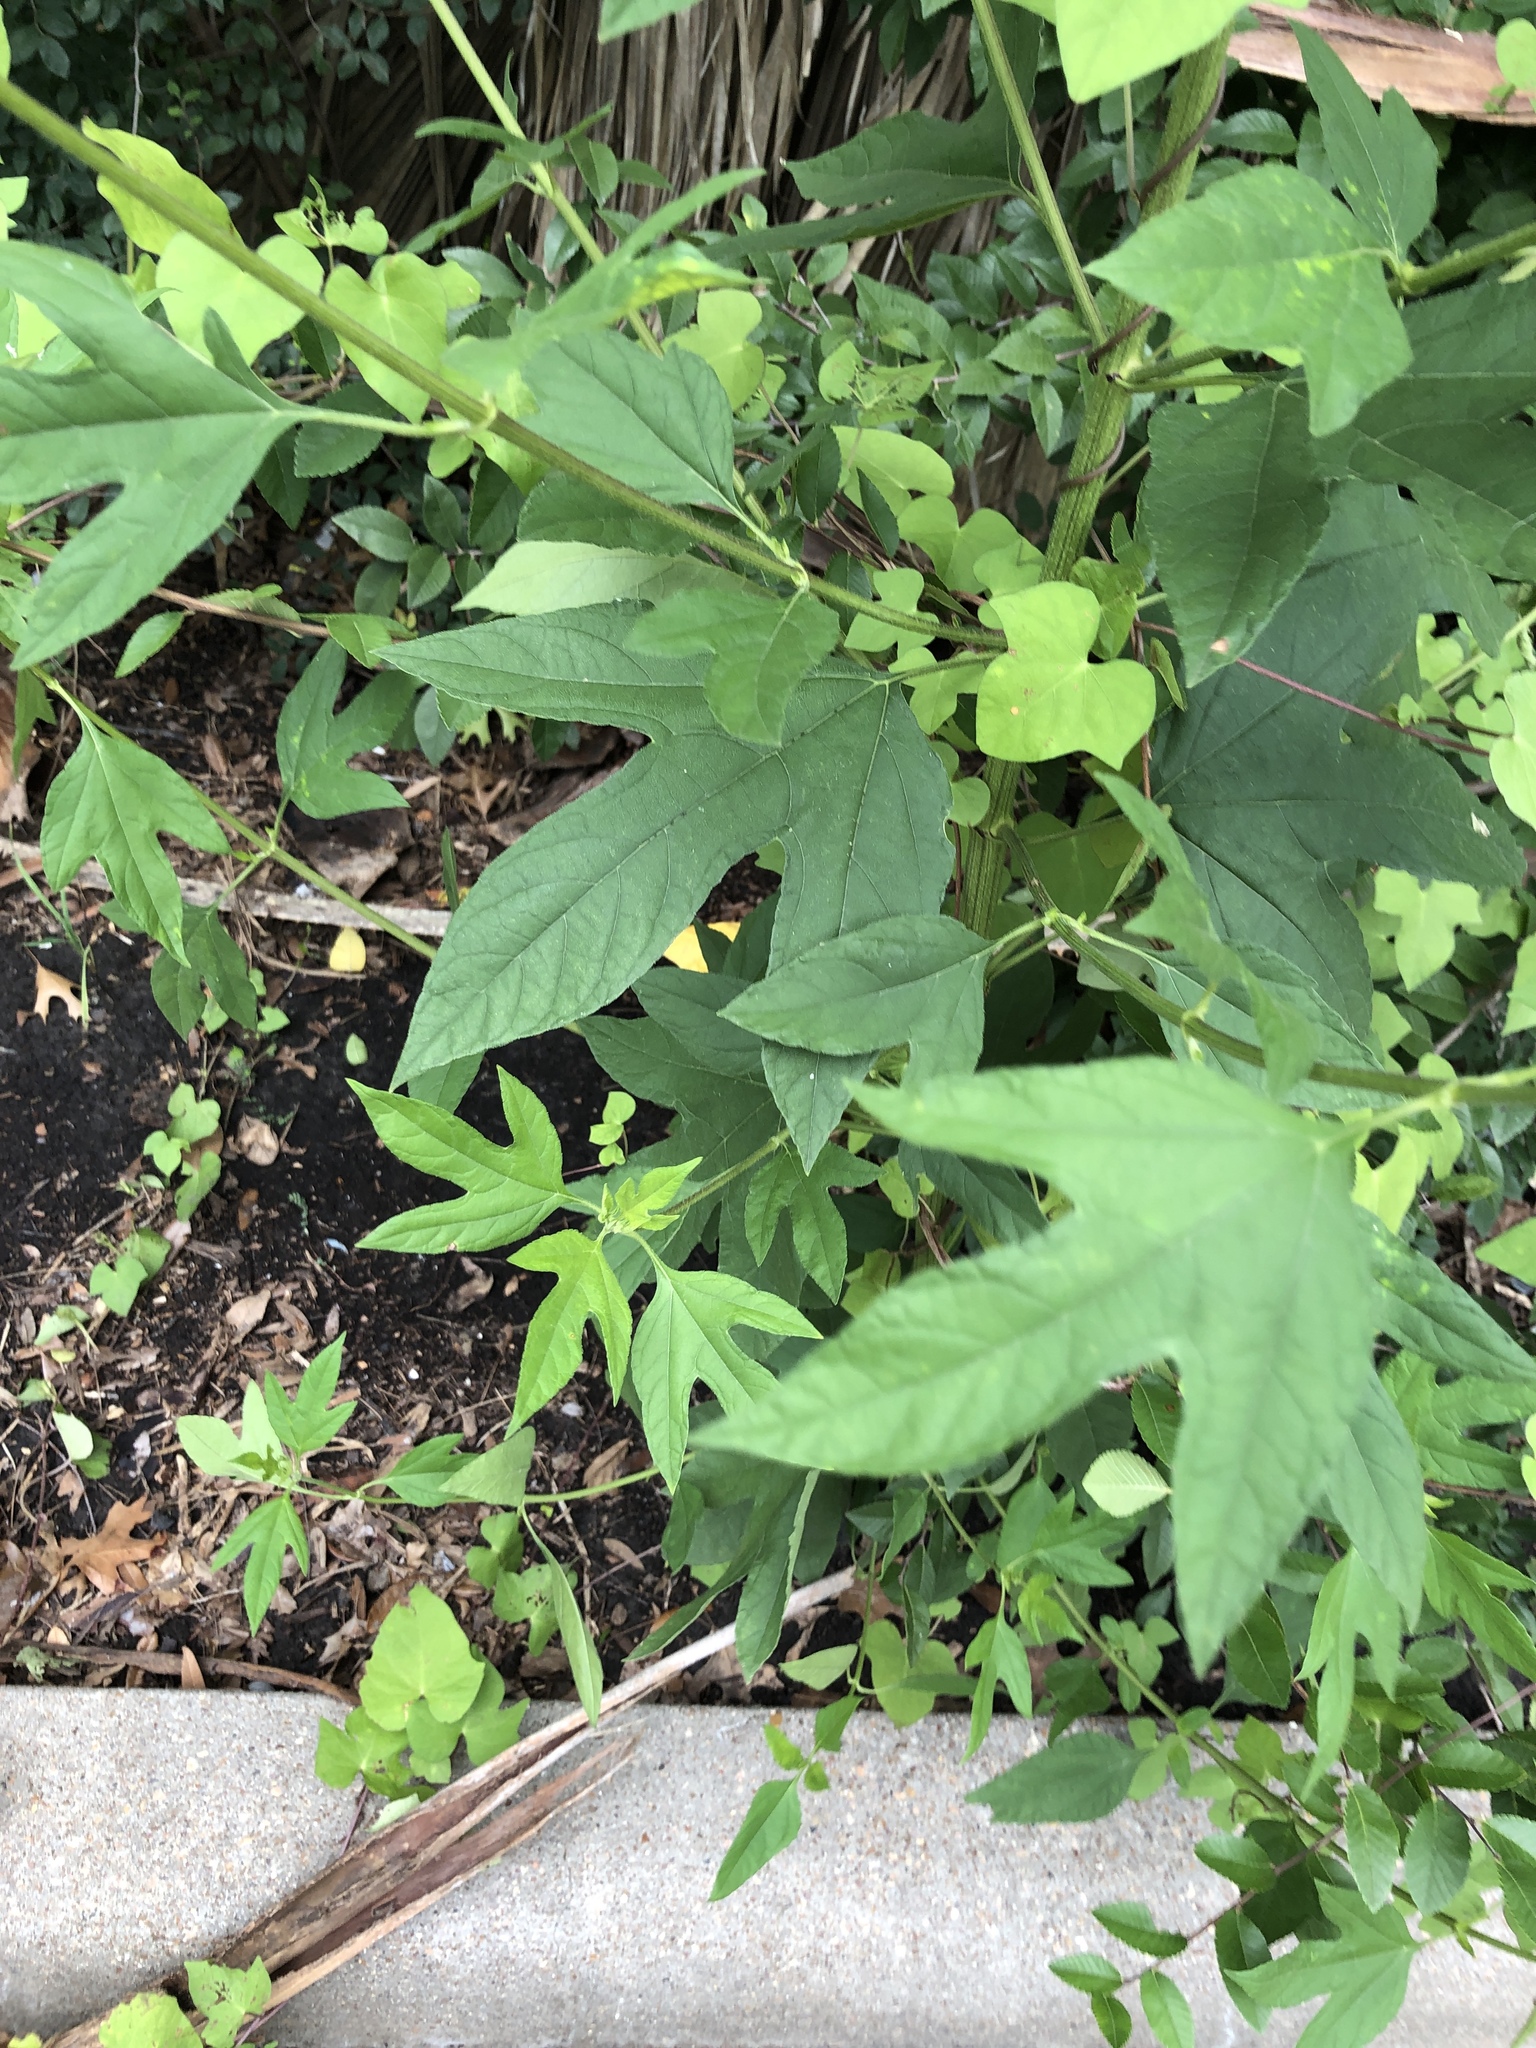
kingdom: Plantae
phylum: Tracheophyta
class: Magnoliopsida
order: Asterales
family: Asteraceae
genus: Ambrosia
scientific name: Ambrosia trifida
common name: Giant ragweed
